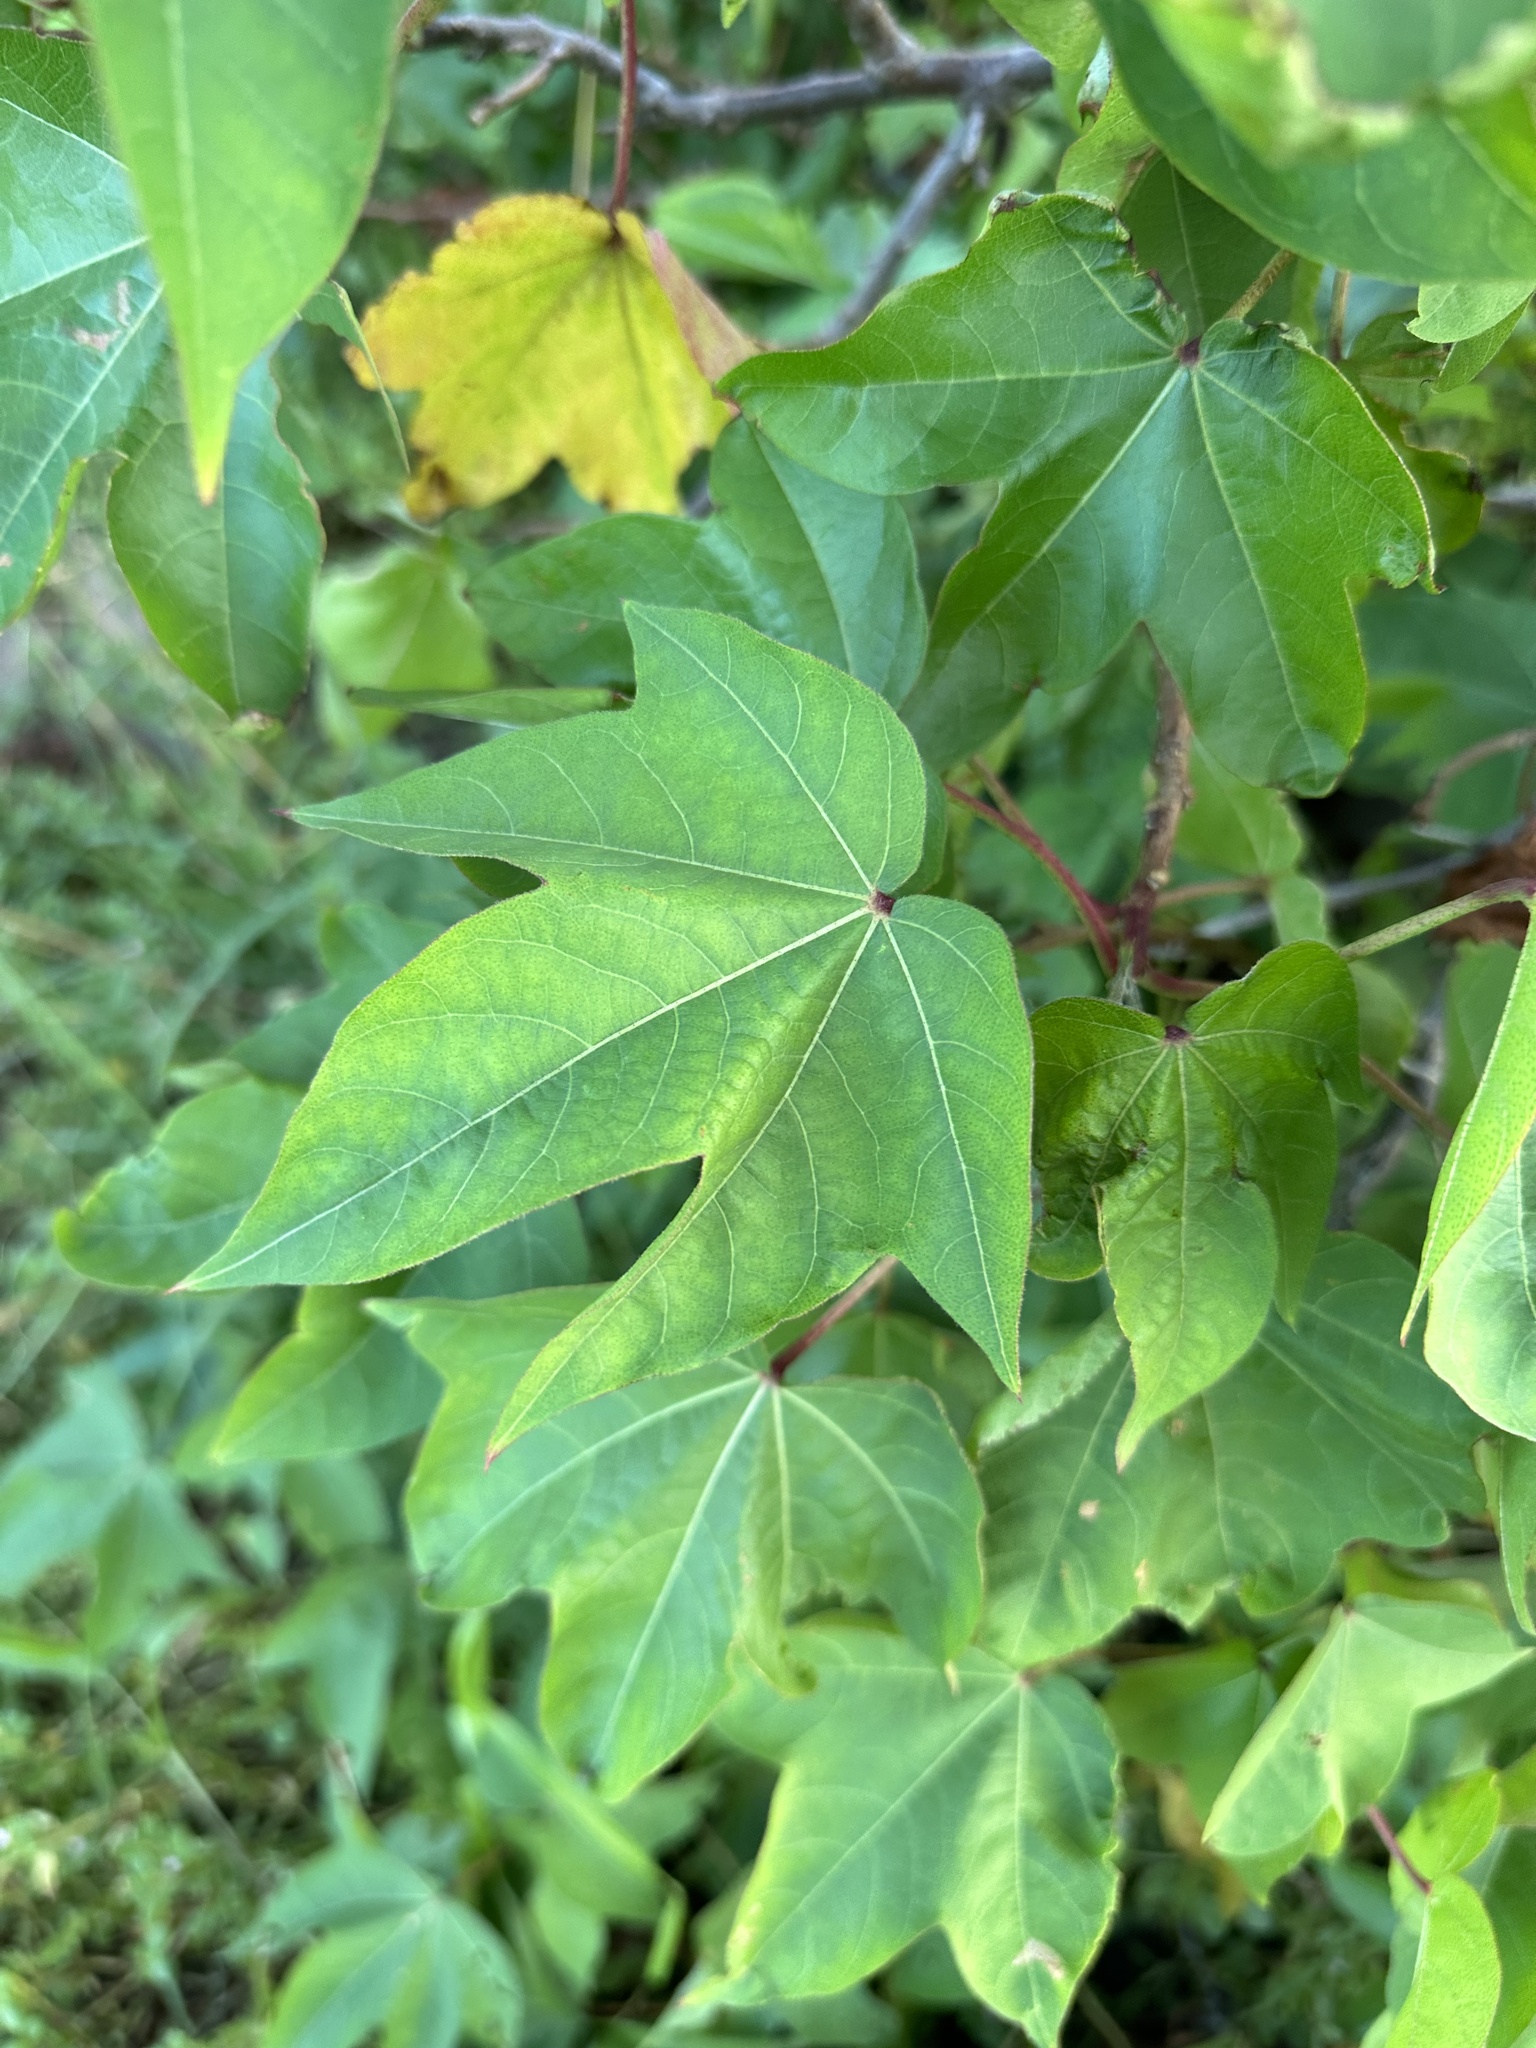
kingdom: Plantae
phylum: Tracheophyta
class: Magnoliopsida
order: Malvales
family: Malvaceae
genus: Gossypium
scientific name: Gossypium hirsutum
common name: Cotton
